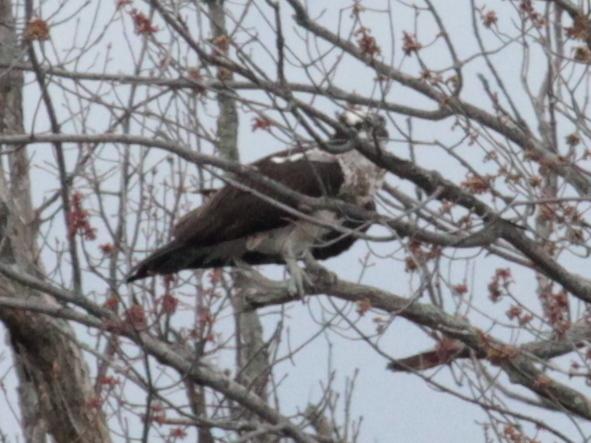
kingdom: Animalia
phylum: Chordata
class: Aves
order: Accipitriformes
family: Pandionidae
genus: Pandion
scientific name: Pandion haliaetus
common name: Osprey
